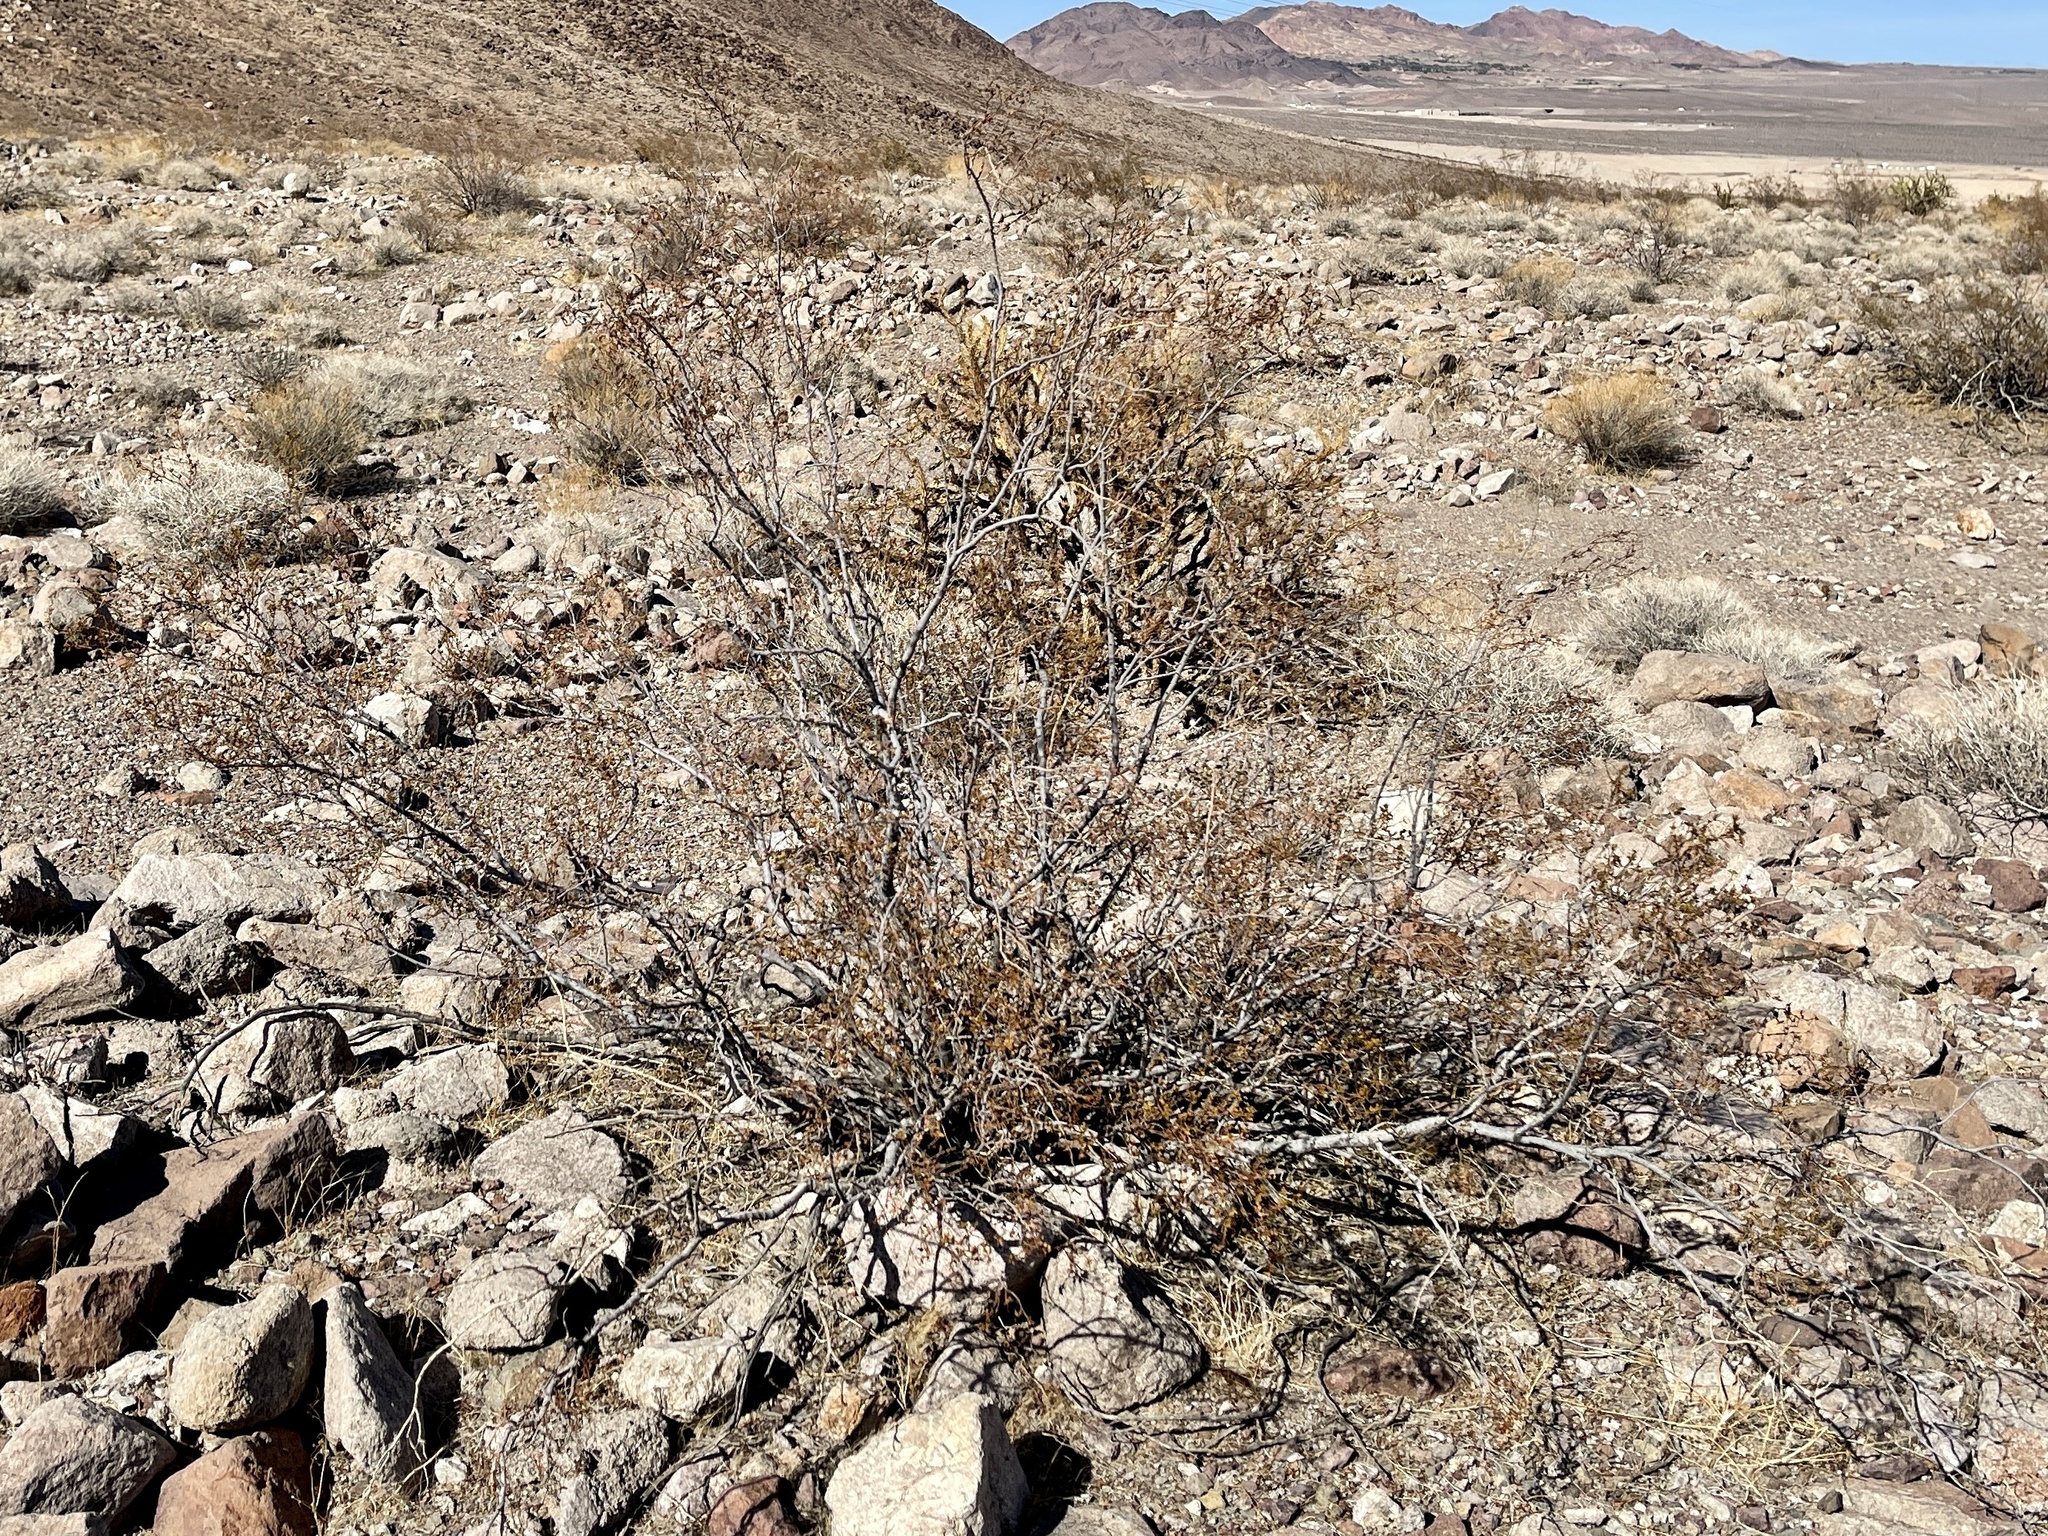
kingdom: Plantae
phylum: Tracheophyta
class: Magnoliopsida
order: Zygophyllales
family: Zygophyllaceae
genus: Larrea
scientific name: Larrea tridentata
